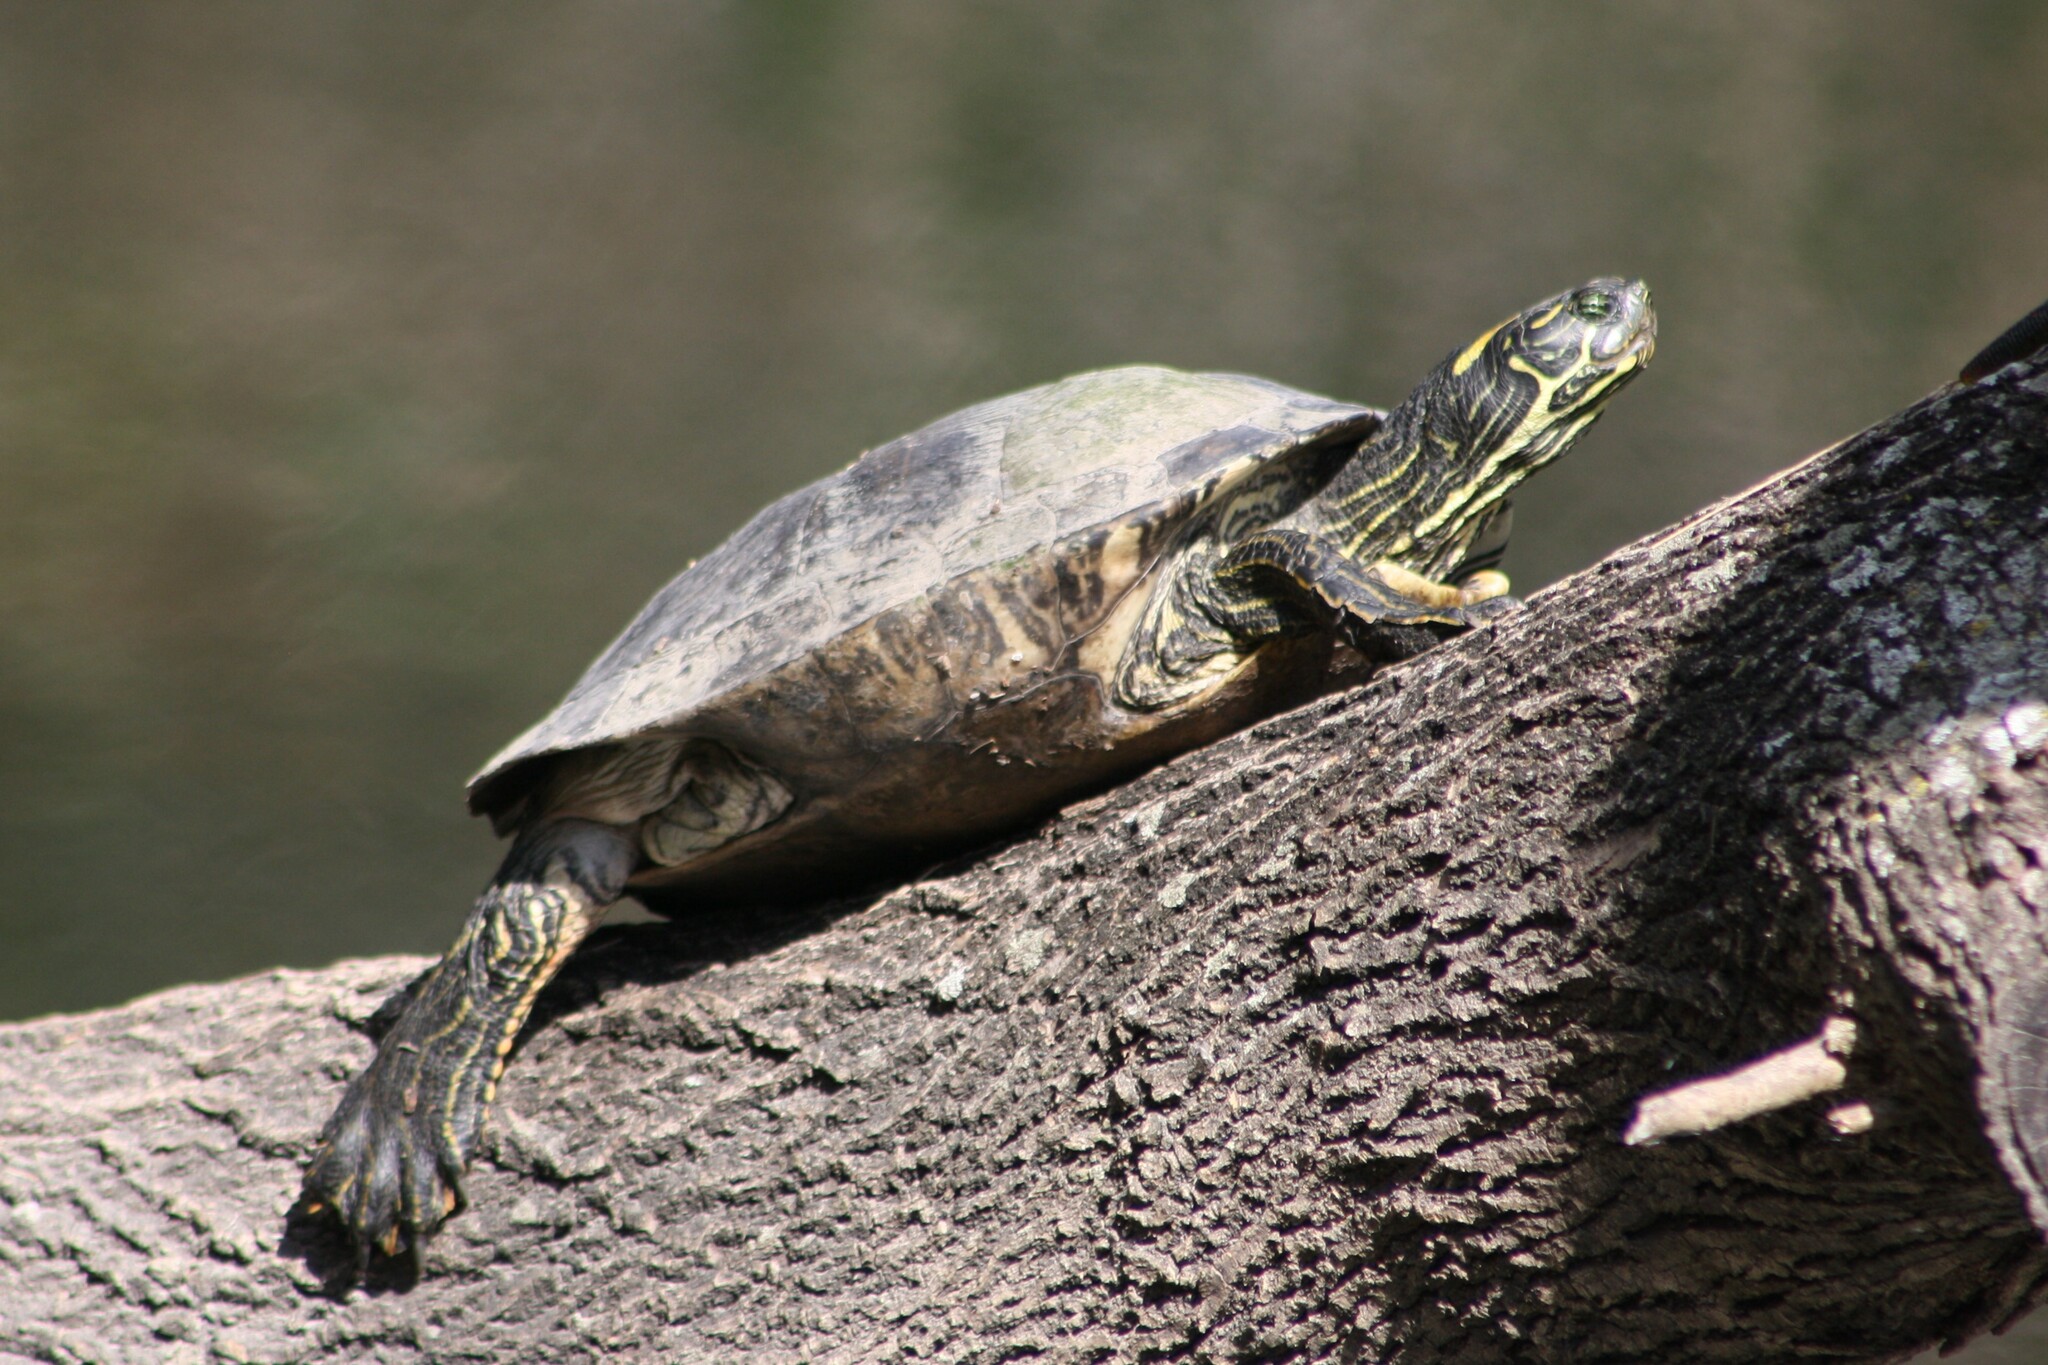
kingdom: Animalia
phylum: Chordata
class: Testudines
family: Emydidae
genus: Pseudemys
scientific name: Pseudemys texana
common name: Texas river cooter
